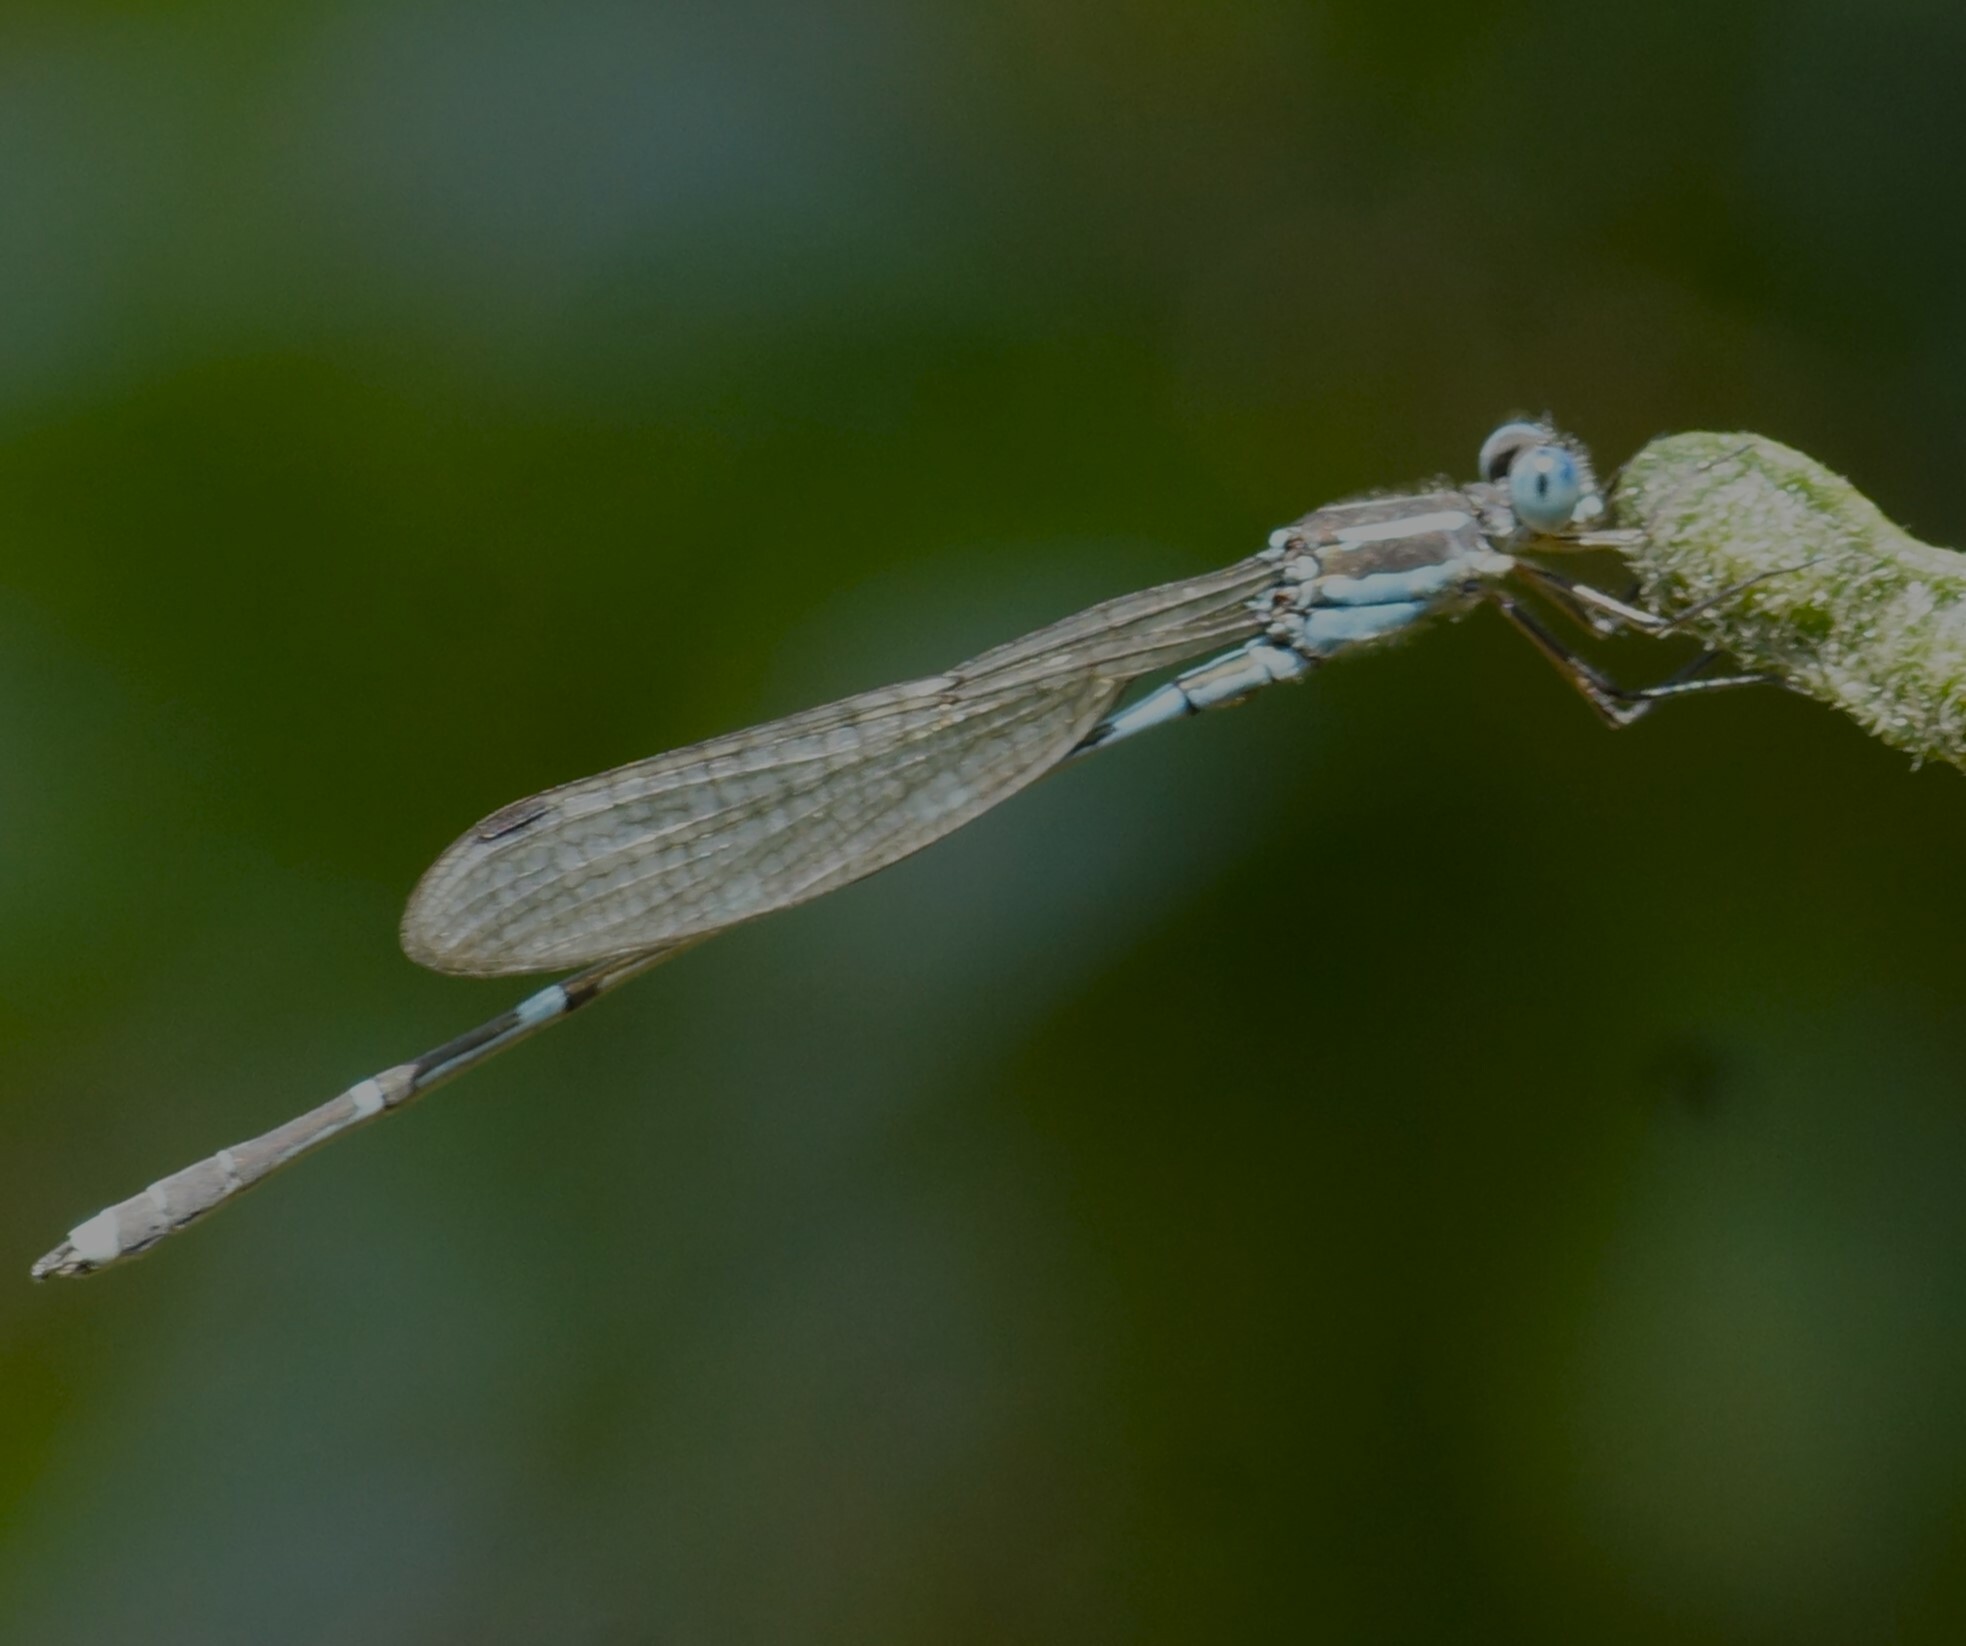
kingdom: Animalia
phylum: Arthropoda
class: Insecta
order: Odonata
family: Lestidae
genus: Austrolestes
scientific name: Austrolestes leda
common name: Wandering ringtail
